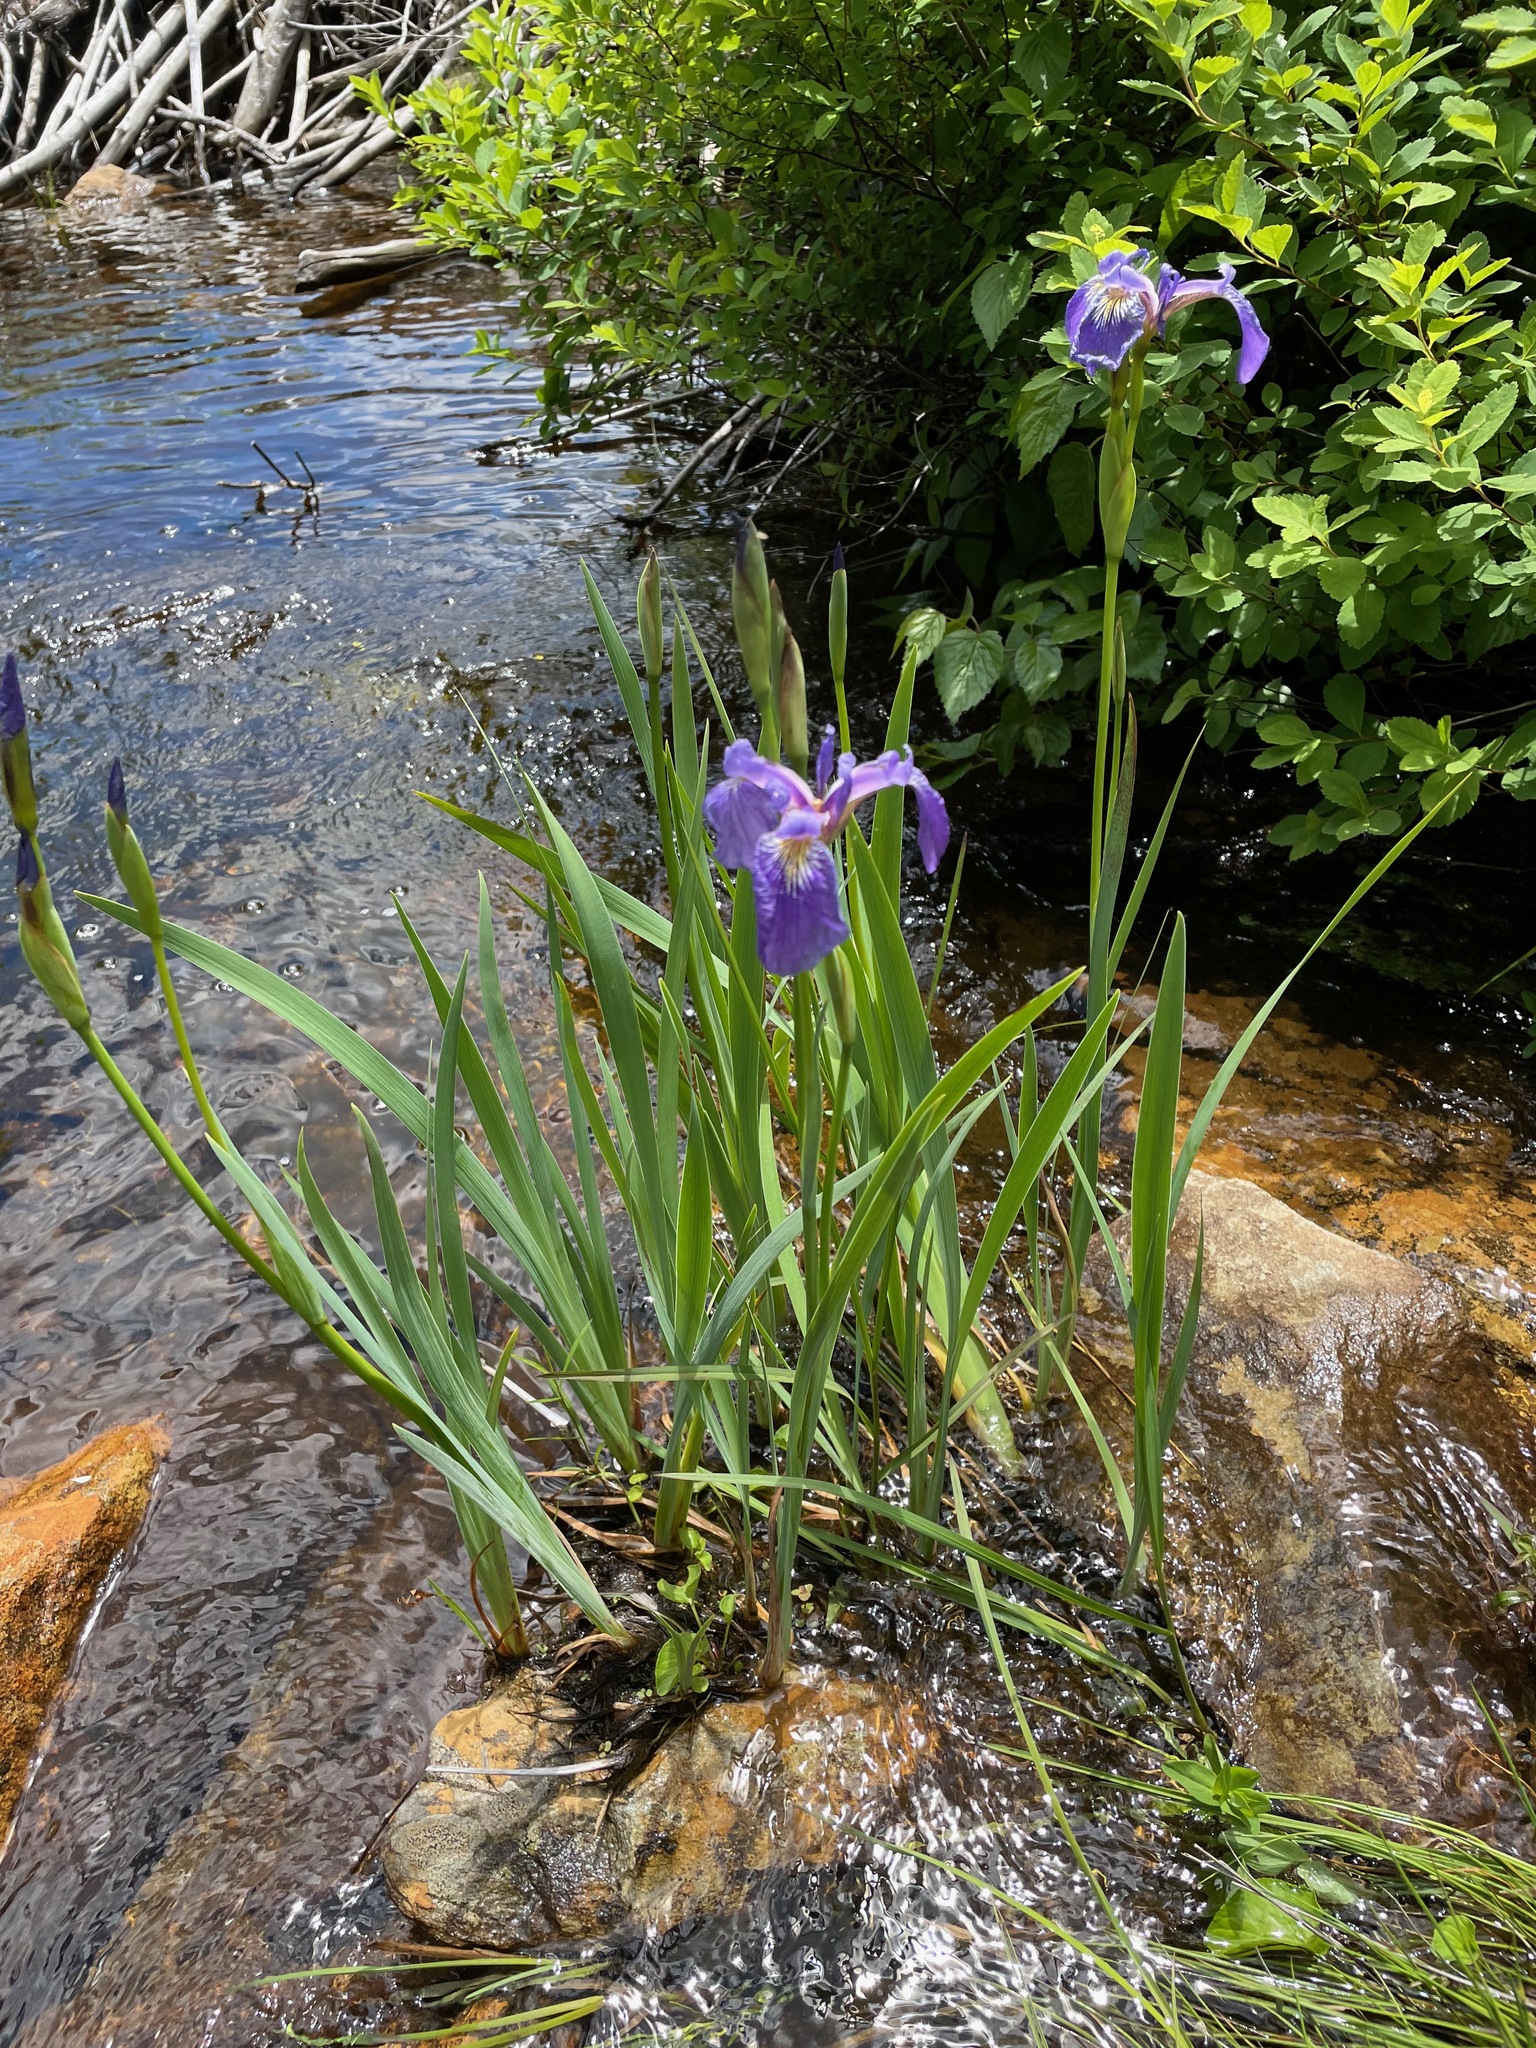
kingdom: Plantae
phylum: Tracheophyta
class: Liliopsida
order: Asparagales
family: Iridaceae
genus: Iris
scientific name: Iris versicolor
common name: Purple iris
